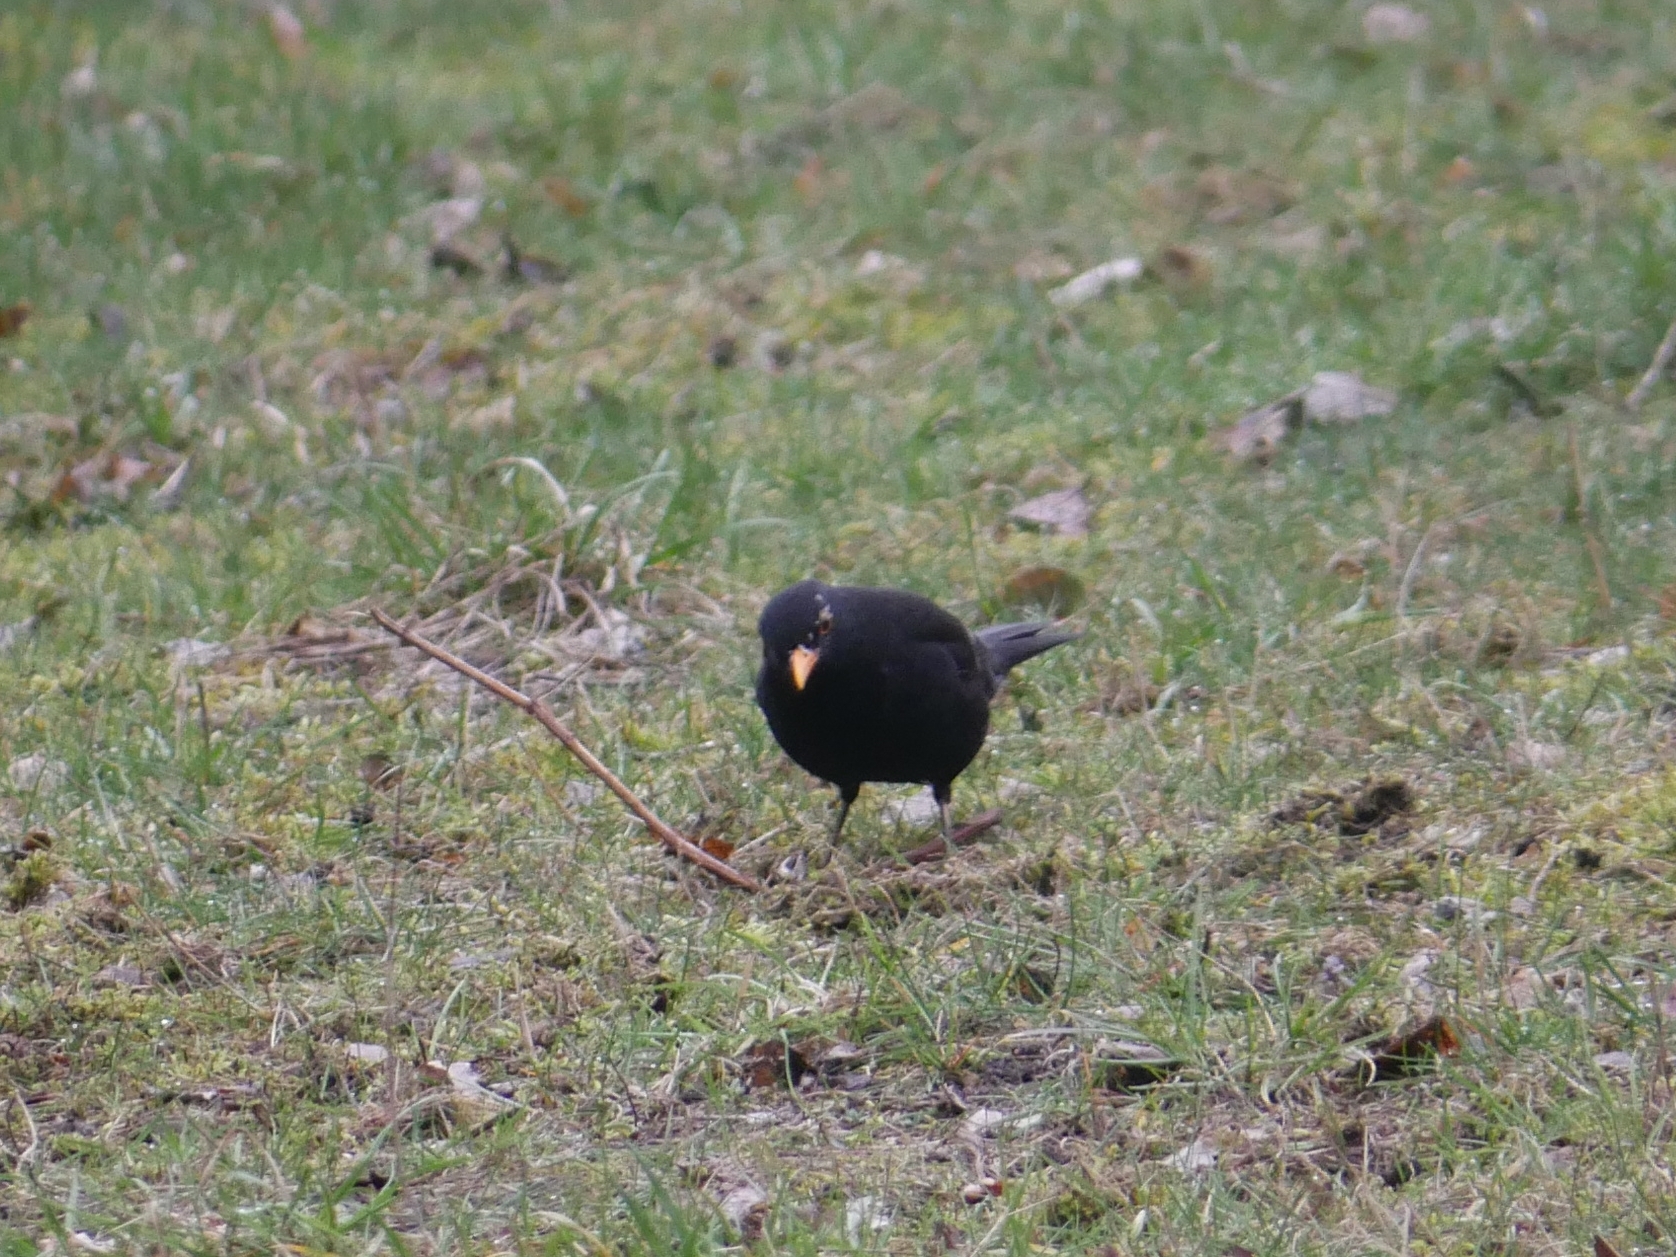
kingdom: Animalia
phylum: Chordata
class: Aves
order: Passeriformes
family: Turdidae
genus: Turdus
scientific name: Turdus merula
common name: Common blackbird
